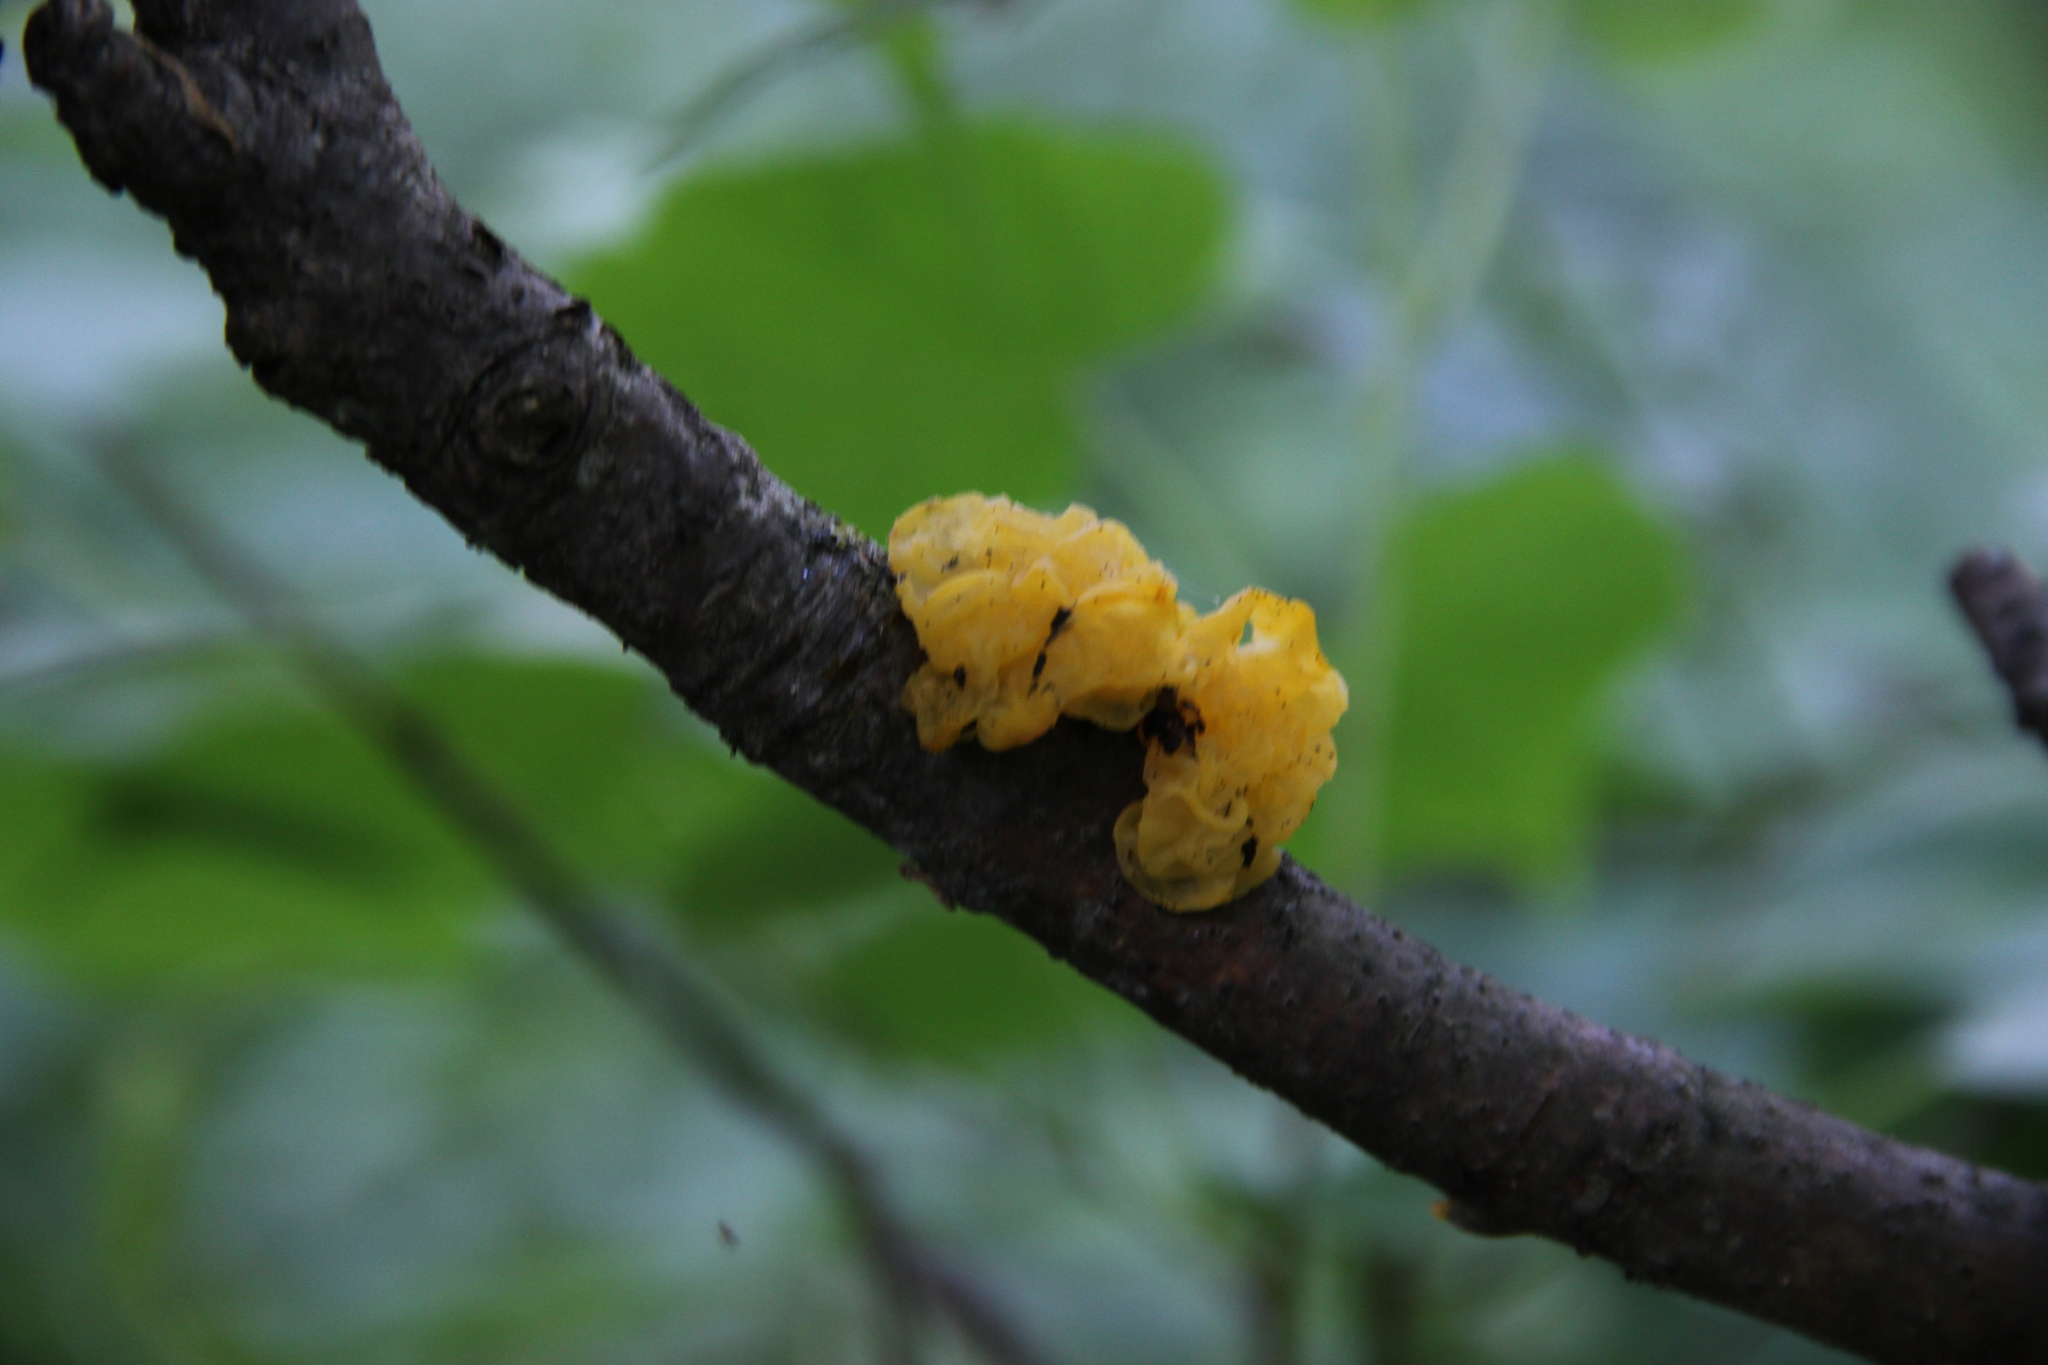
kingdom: Fungi
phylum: Basidiomycota
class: Tremellomycetes
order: Tremellales
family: Tremellaceae
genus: Tremella
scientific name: Tremella mesenterica
